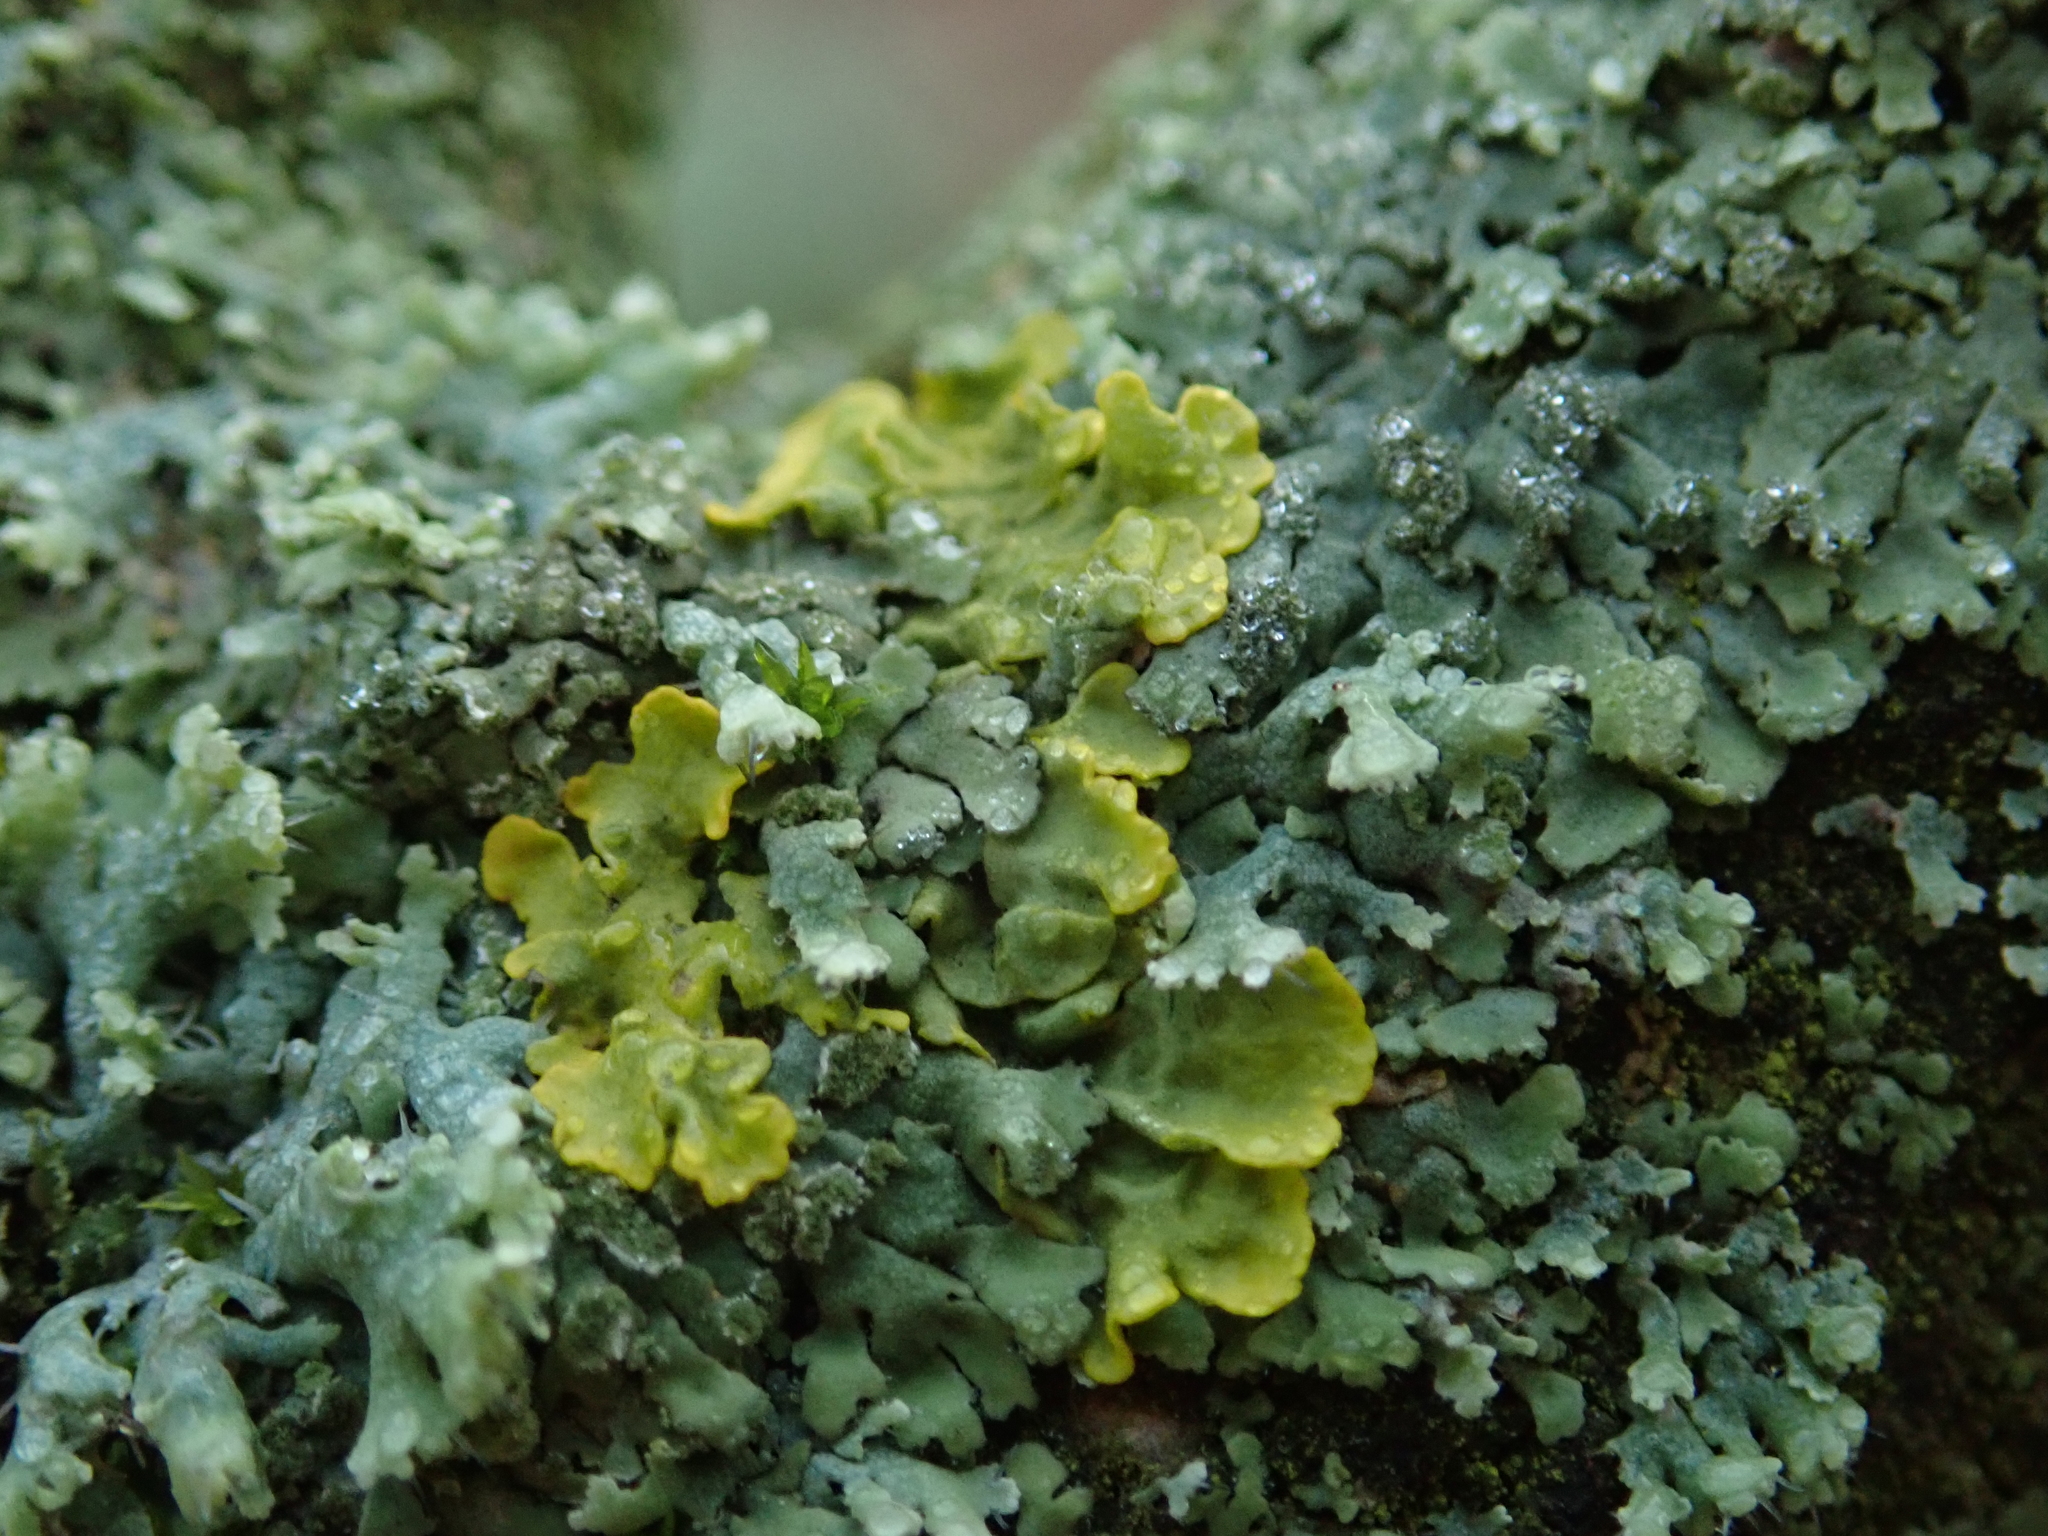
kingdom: Fungi
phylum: Ascomycota
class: Lecanoromycetes
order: Teloschistales
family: Teloschistaceae
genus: Xanthoria
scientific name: Xanthoria parietina
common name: Common orange lichen
